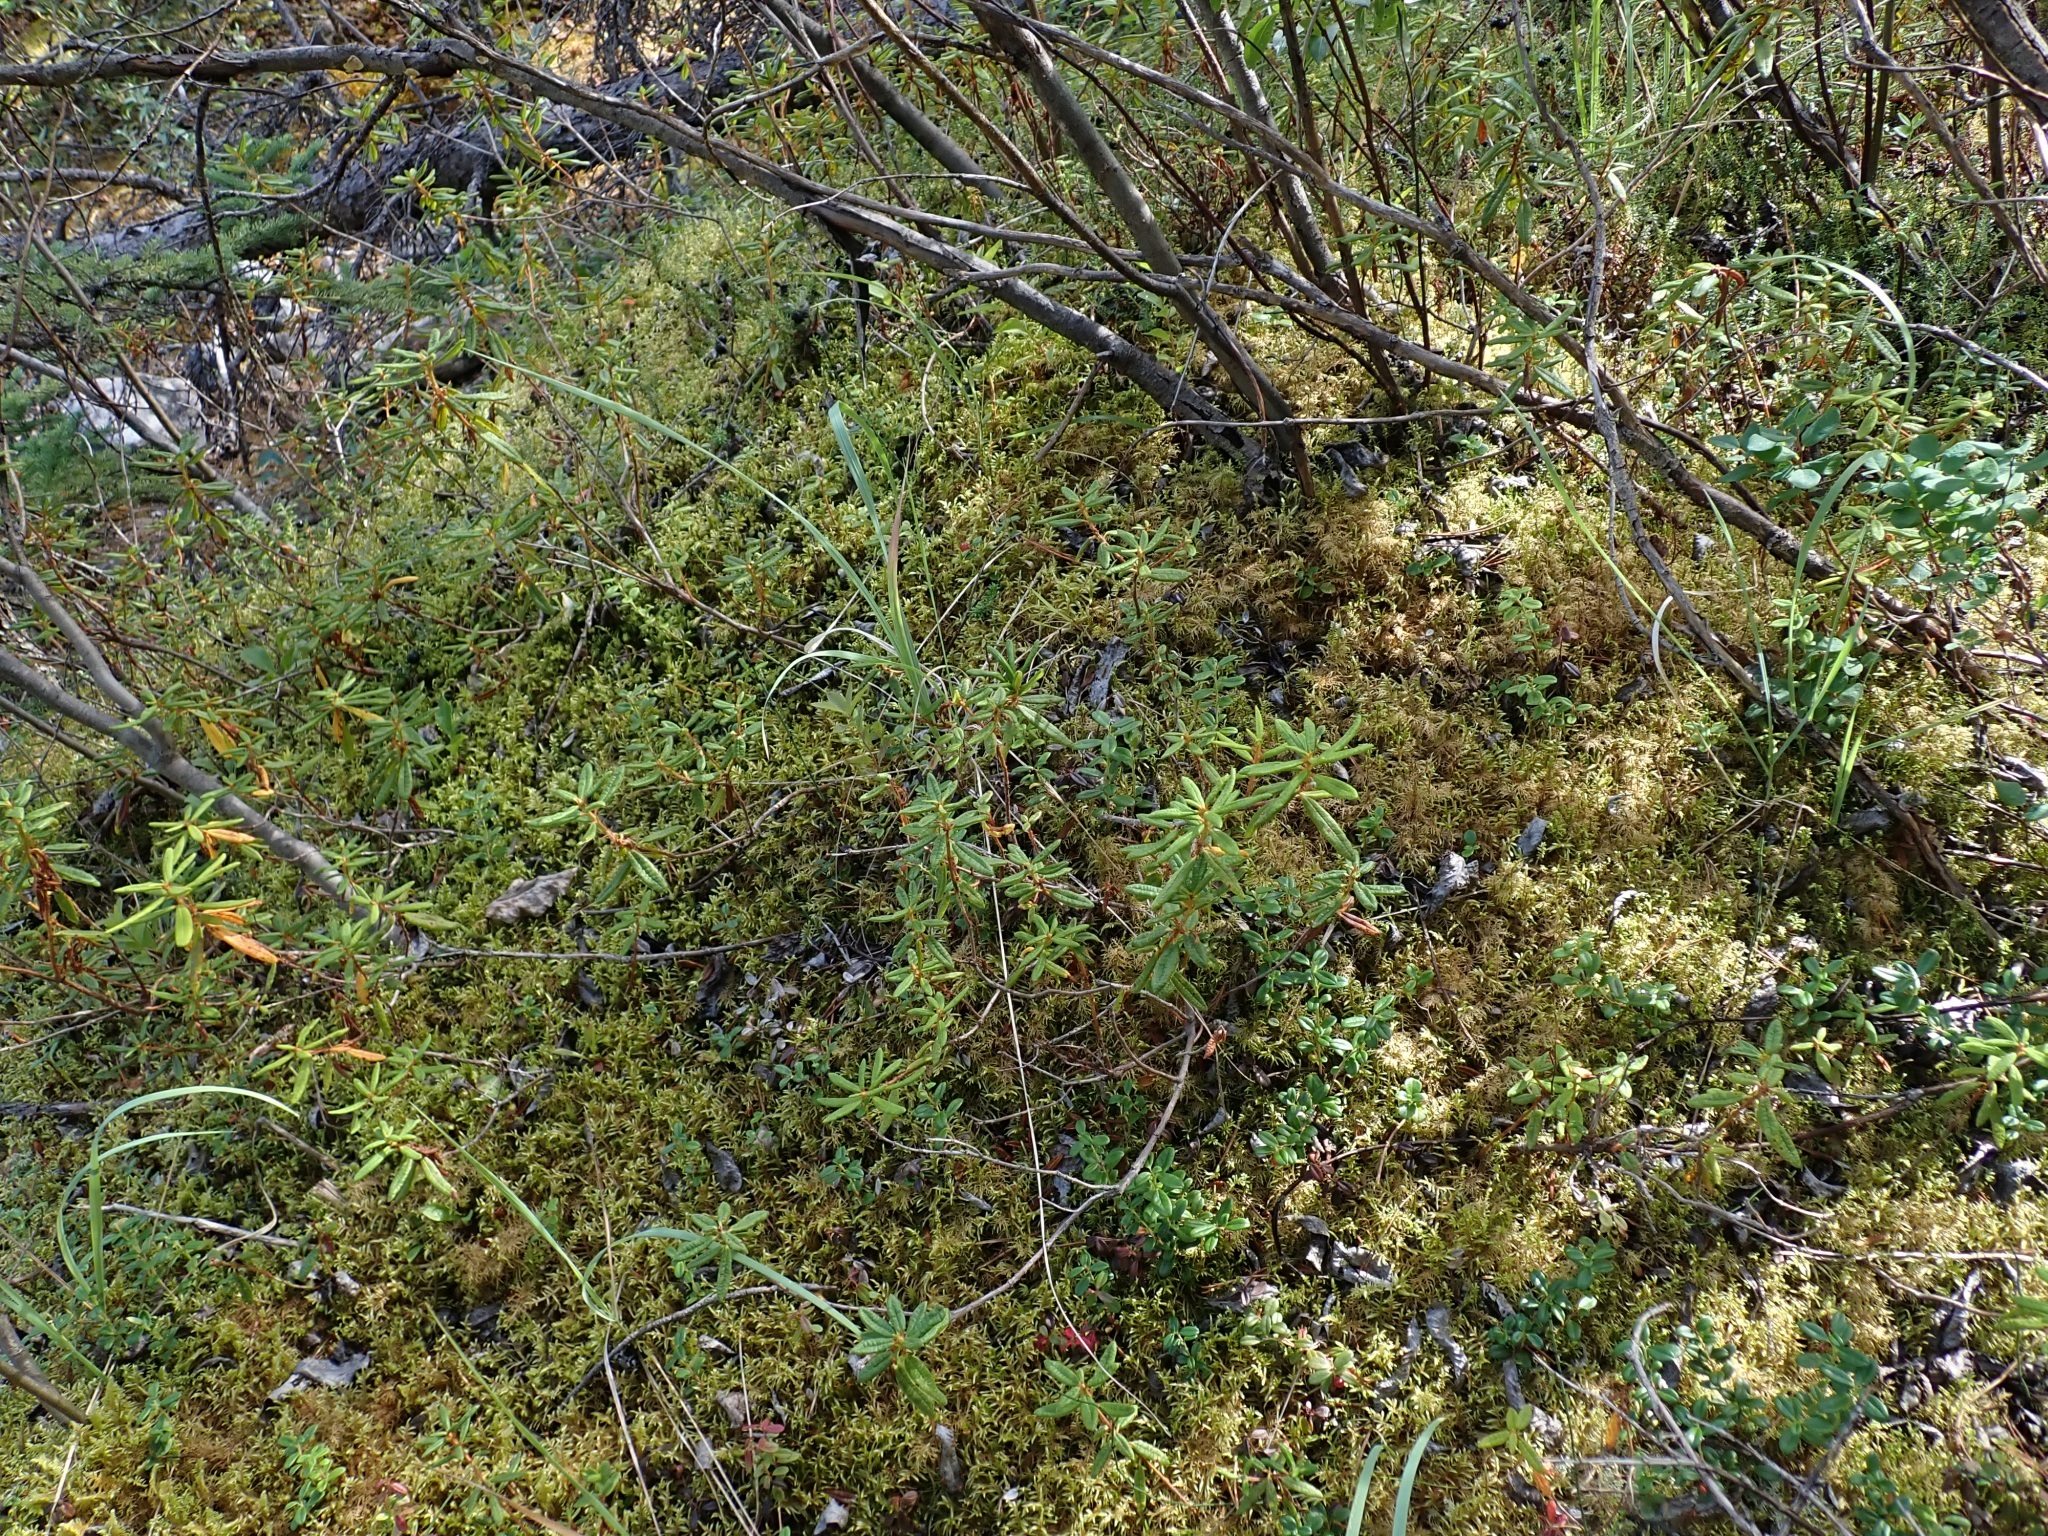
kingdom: Plantae
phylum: Tracheophyta
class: Magnoliopsida
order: Ericales
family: Ericaceae
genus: Rhododendron
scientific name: Rhododendron groenlandicum
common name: Bog labrador tea
